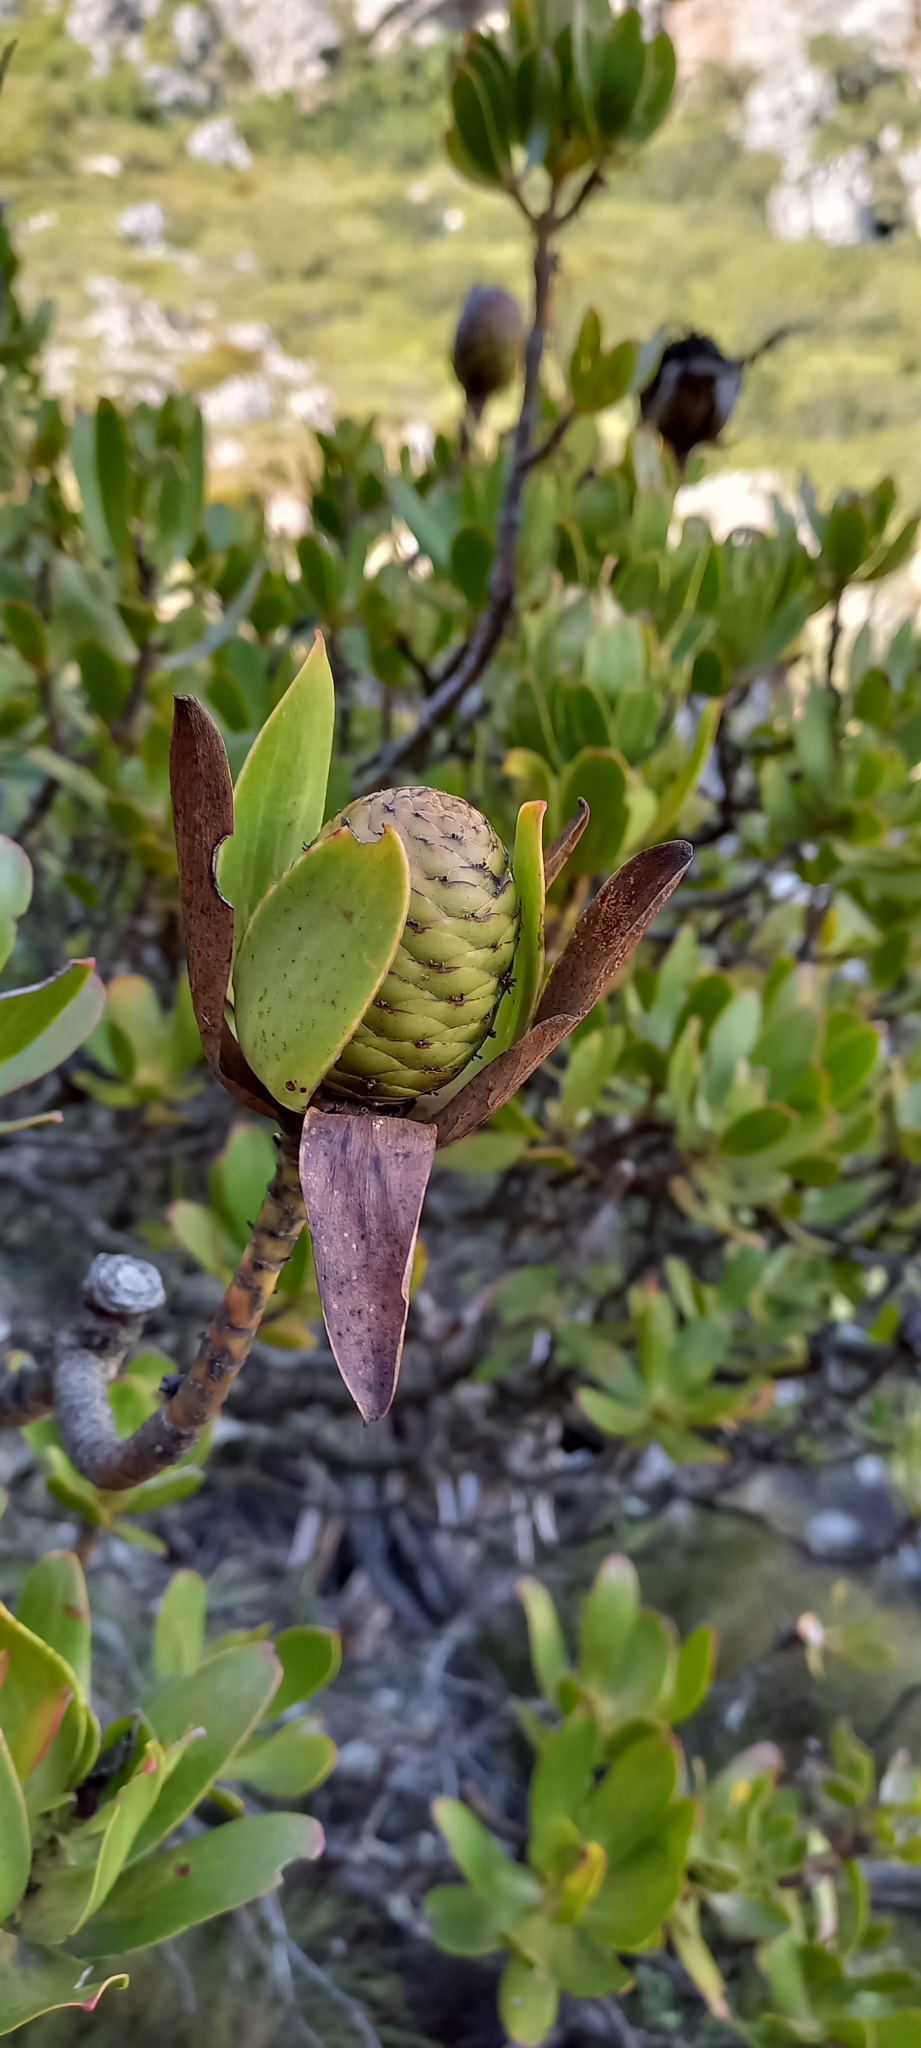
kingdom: Plantae
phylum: Tracheophyta
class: Magnoliopsida
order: Proteales
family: Proteaceae
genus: Leucadendron
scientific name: Leucadendron strobilinum
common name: Mountain rose
